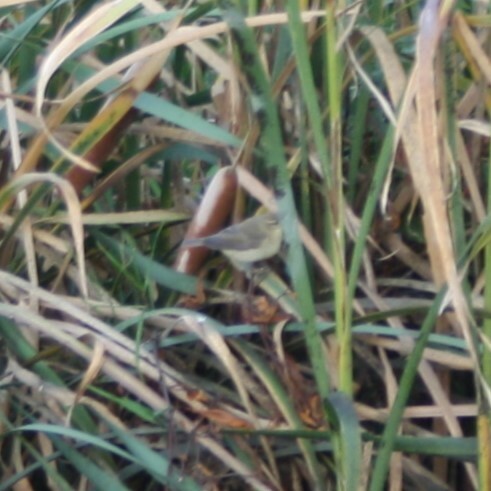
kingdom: Animalia
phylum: Chordata
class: Aves
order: Passeriformes
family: Phylloscopidae
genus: Phylloscopus
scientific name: Phylloscopus trochilus
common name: Willow warbler
